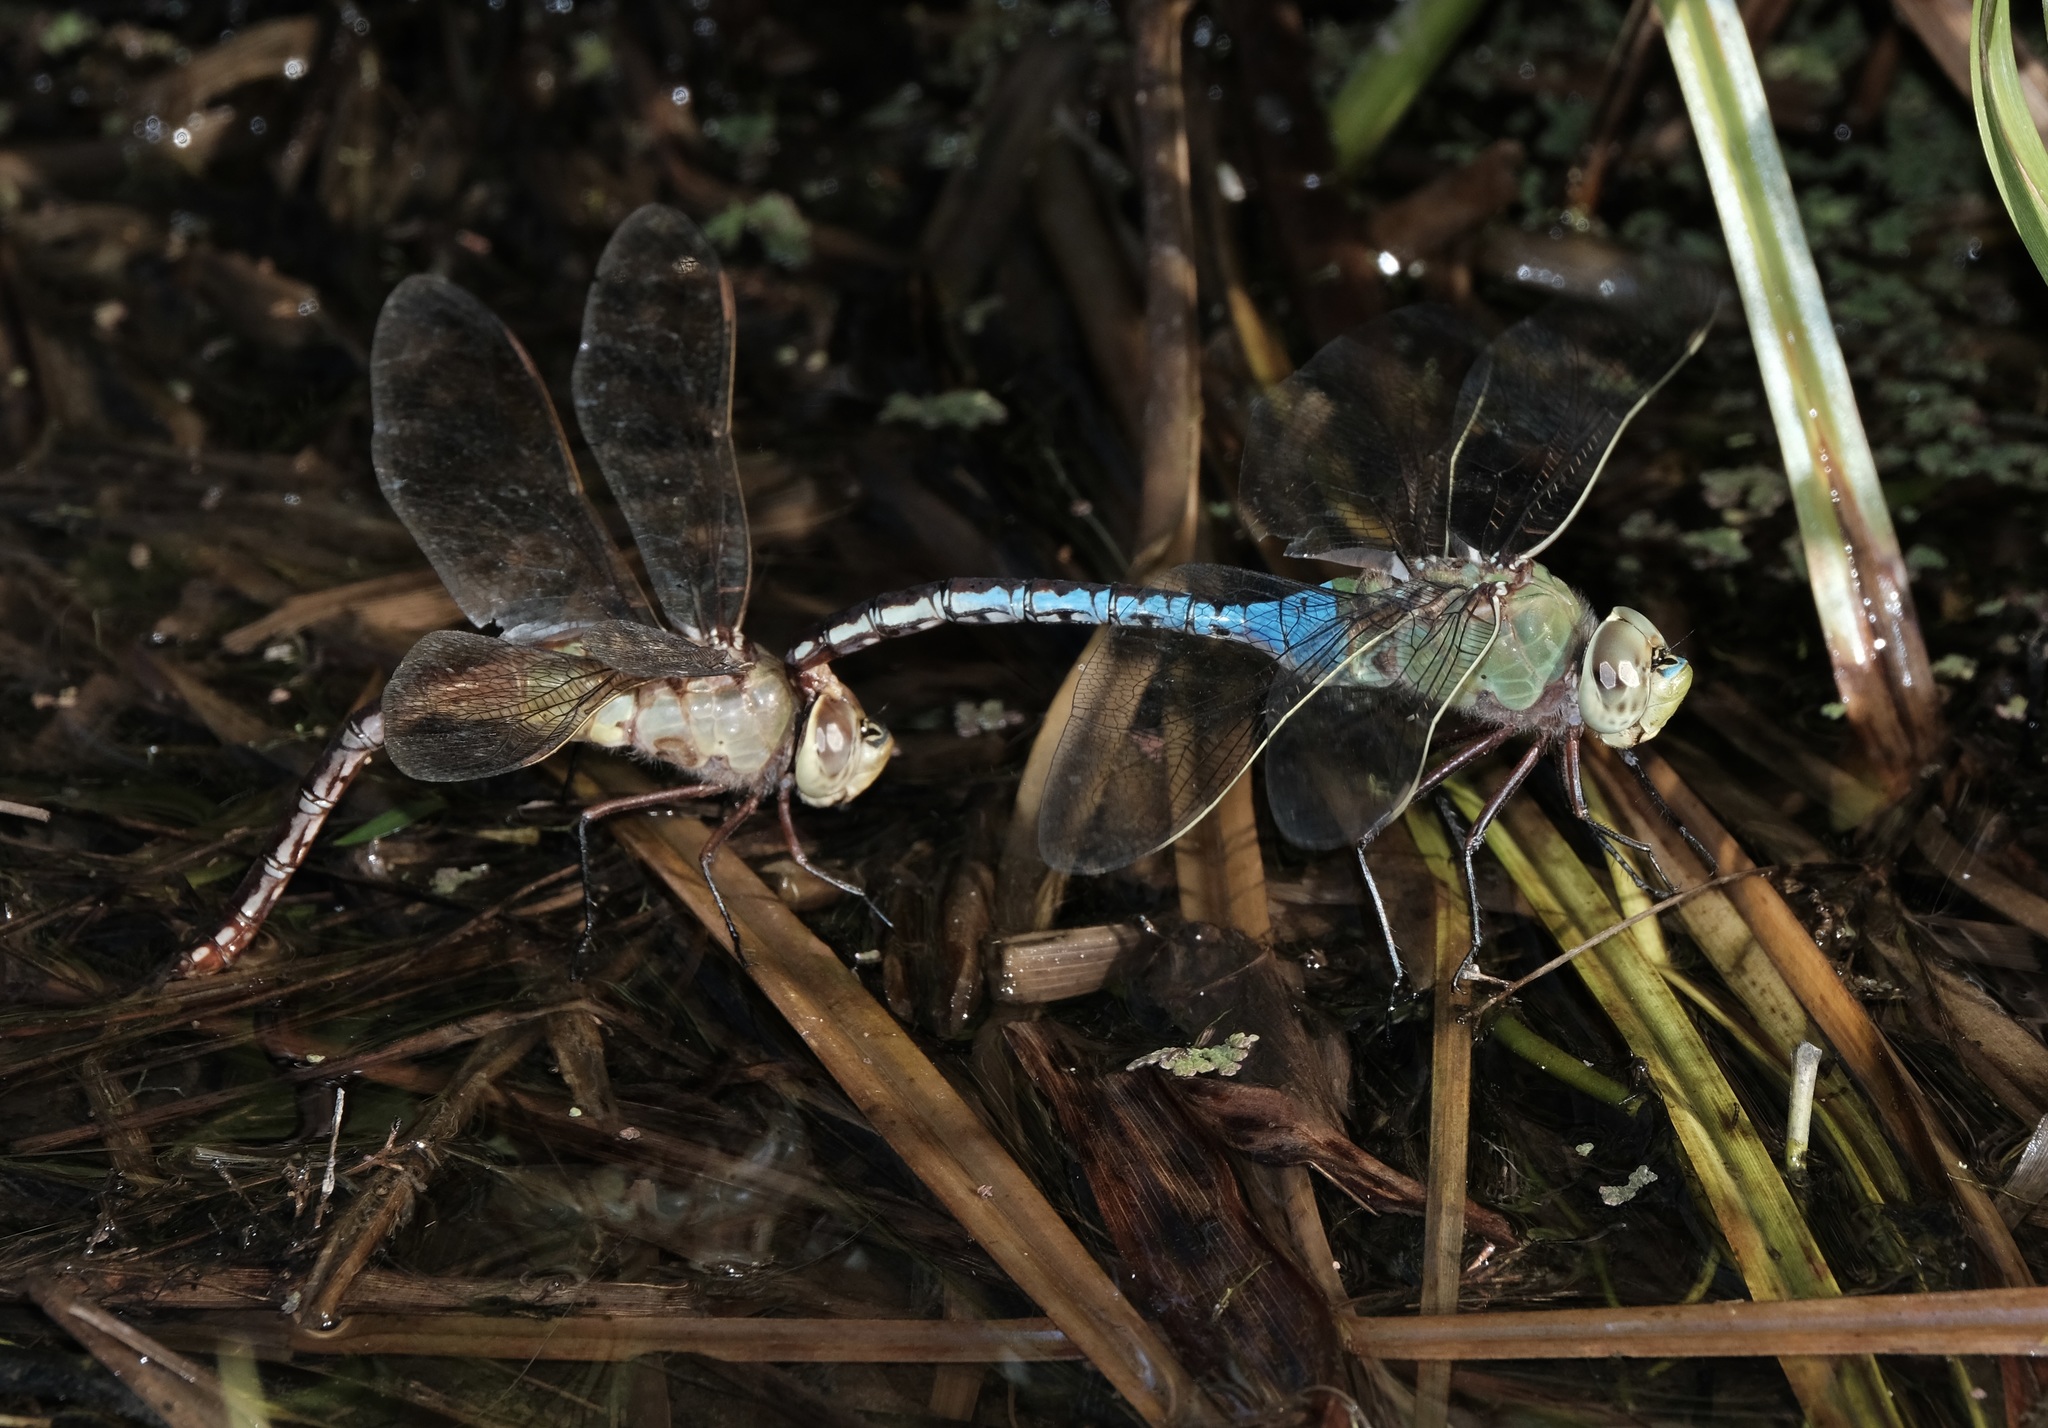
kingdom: Animalia
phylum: Arthropoda
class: Insecta
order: Odonata
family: Aeshnidae
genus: Anax
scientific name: Anax junius
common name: Common green darner
